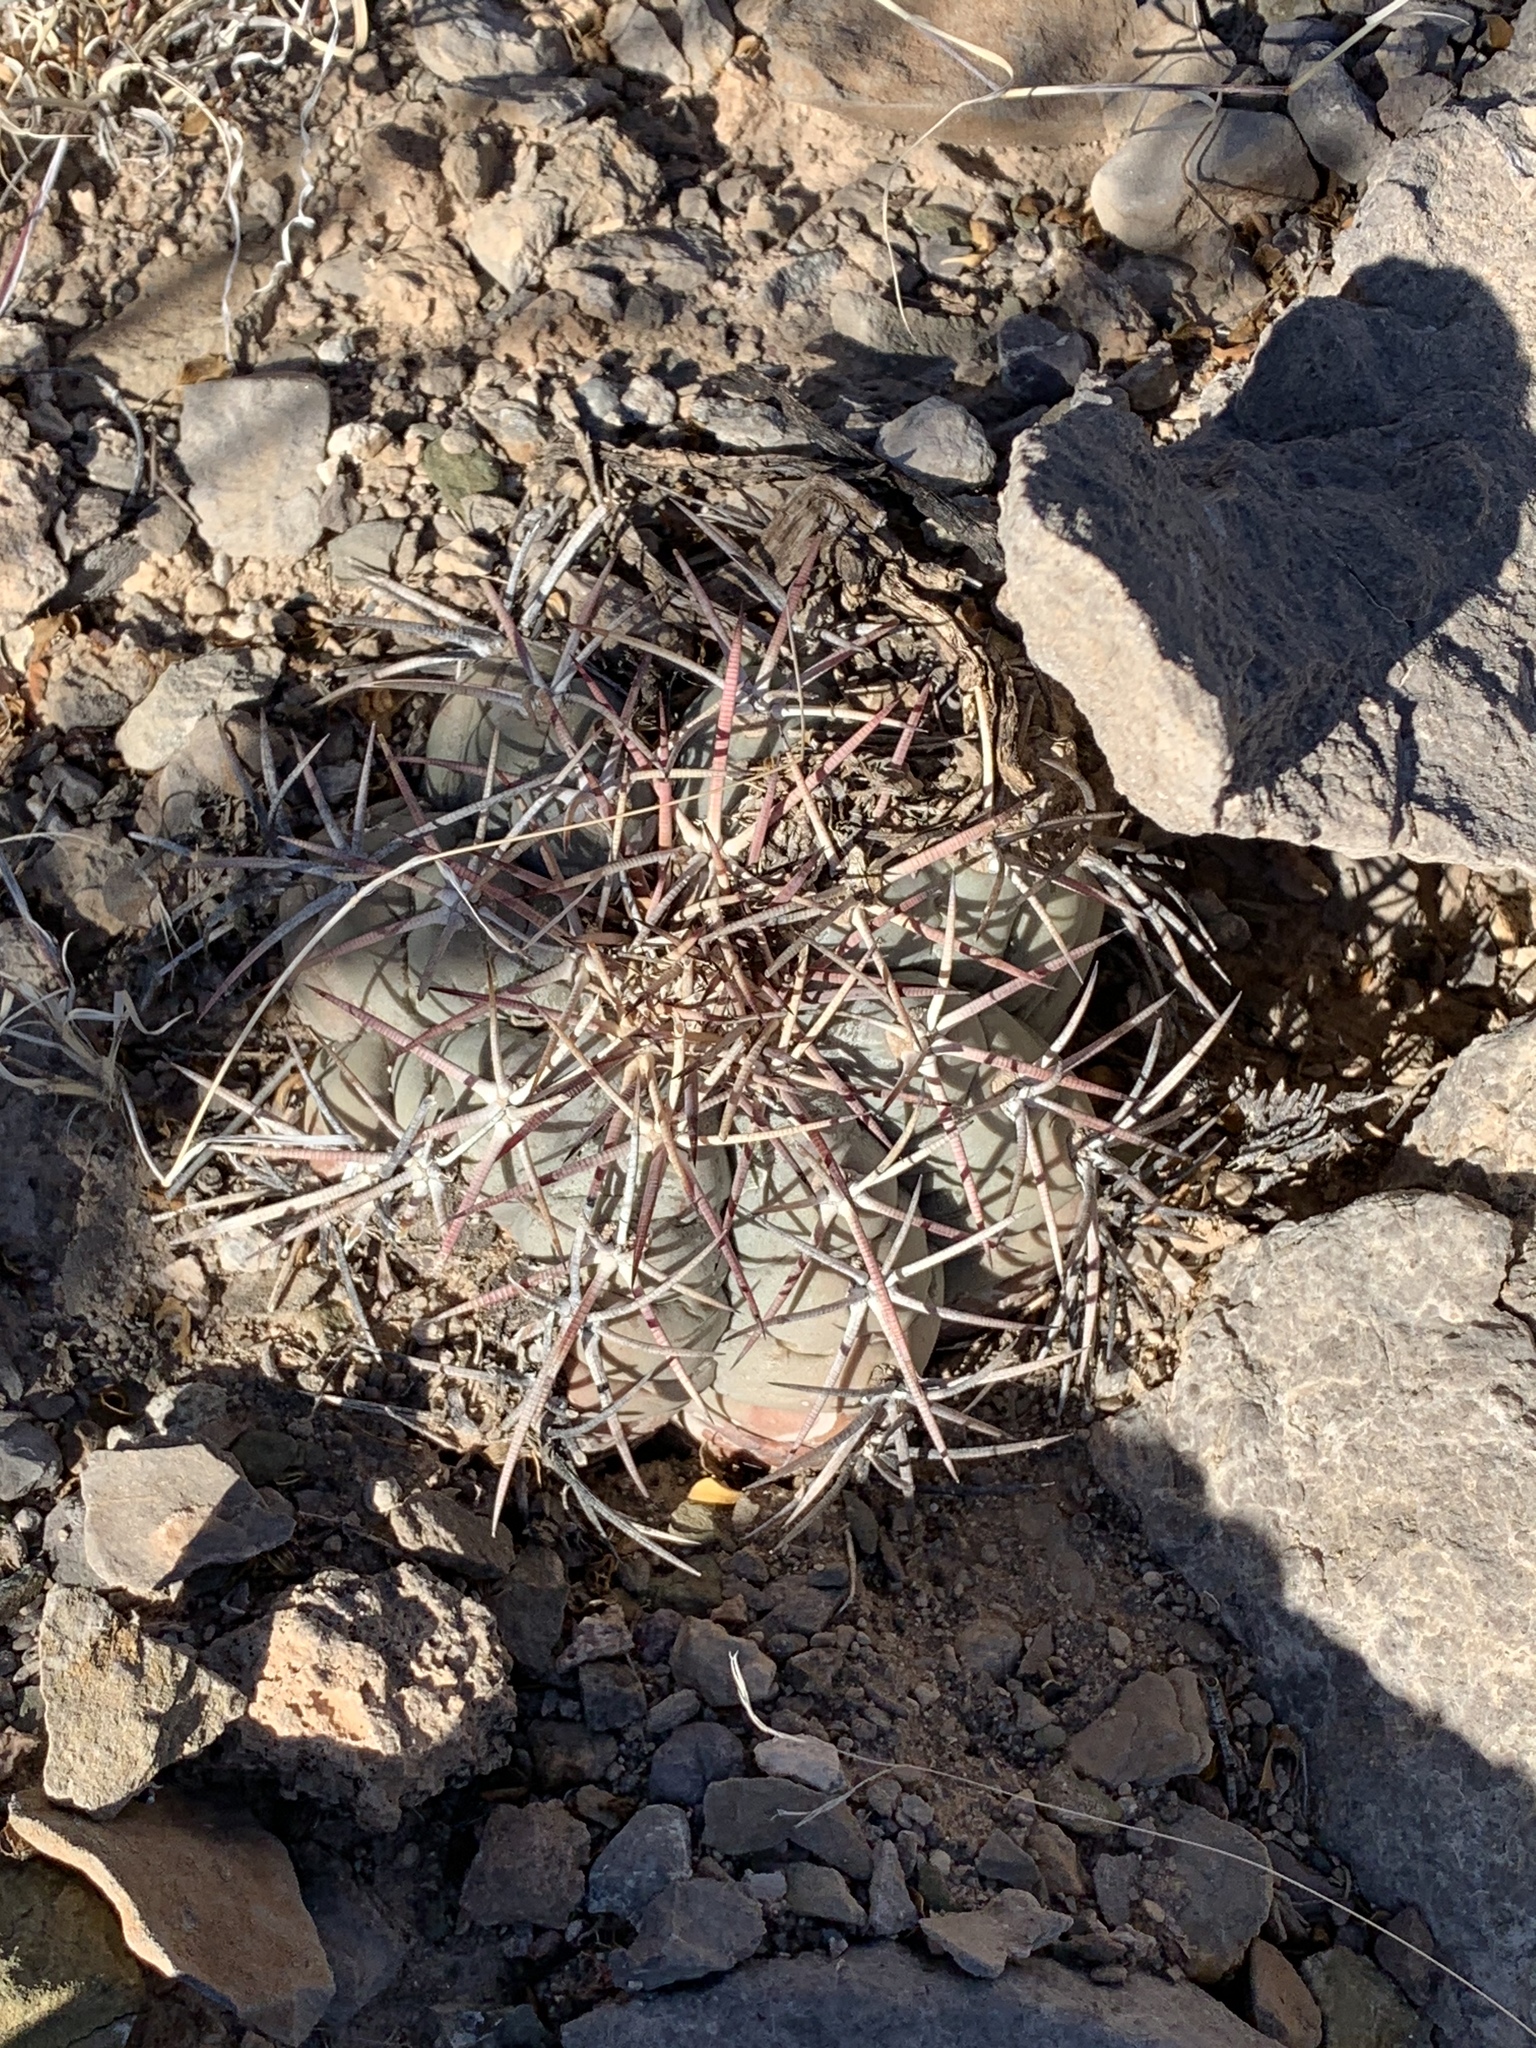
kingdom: Plantae
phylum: Tracheophyta
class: Magnoliopsida
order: Caryophyllales
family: Cactaceae
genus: Echinocactus
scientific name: Echinocactus horizonthalonius
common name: Devilshead
